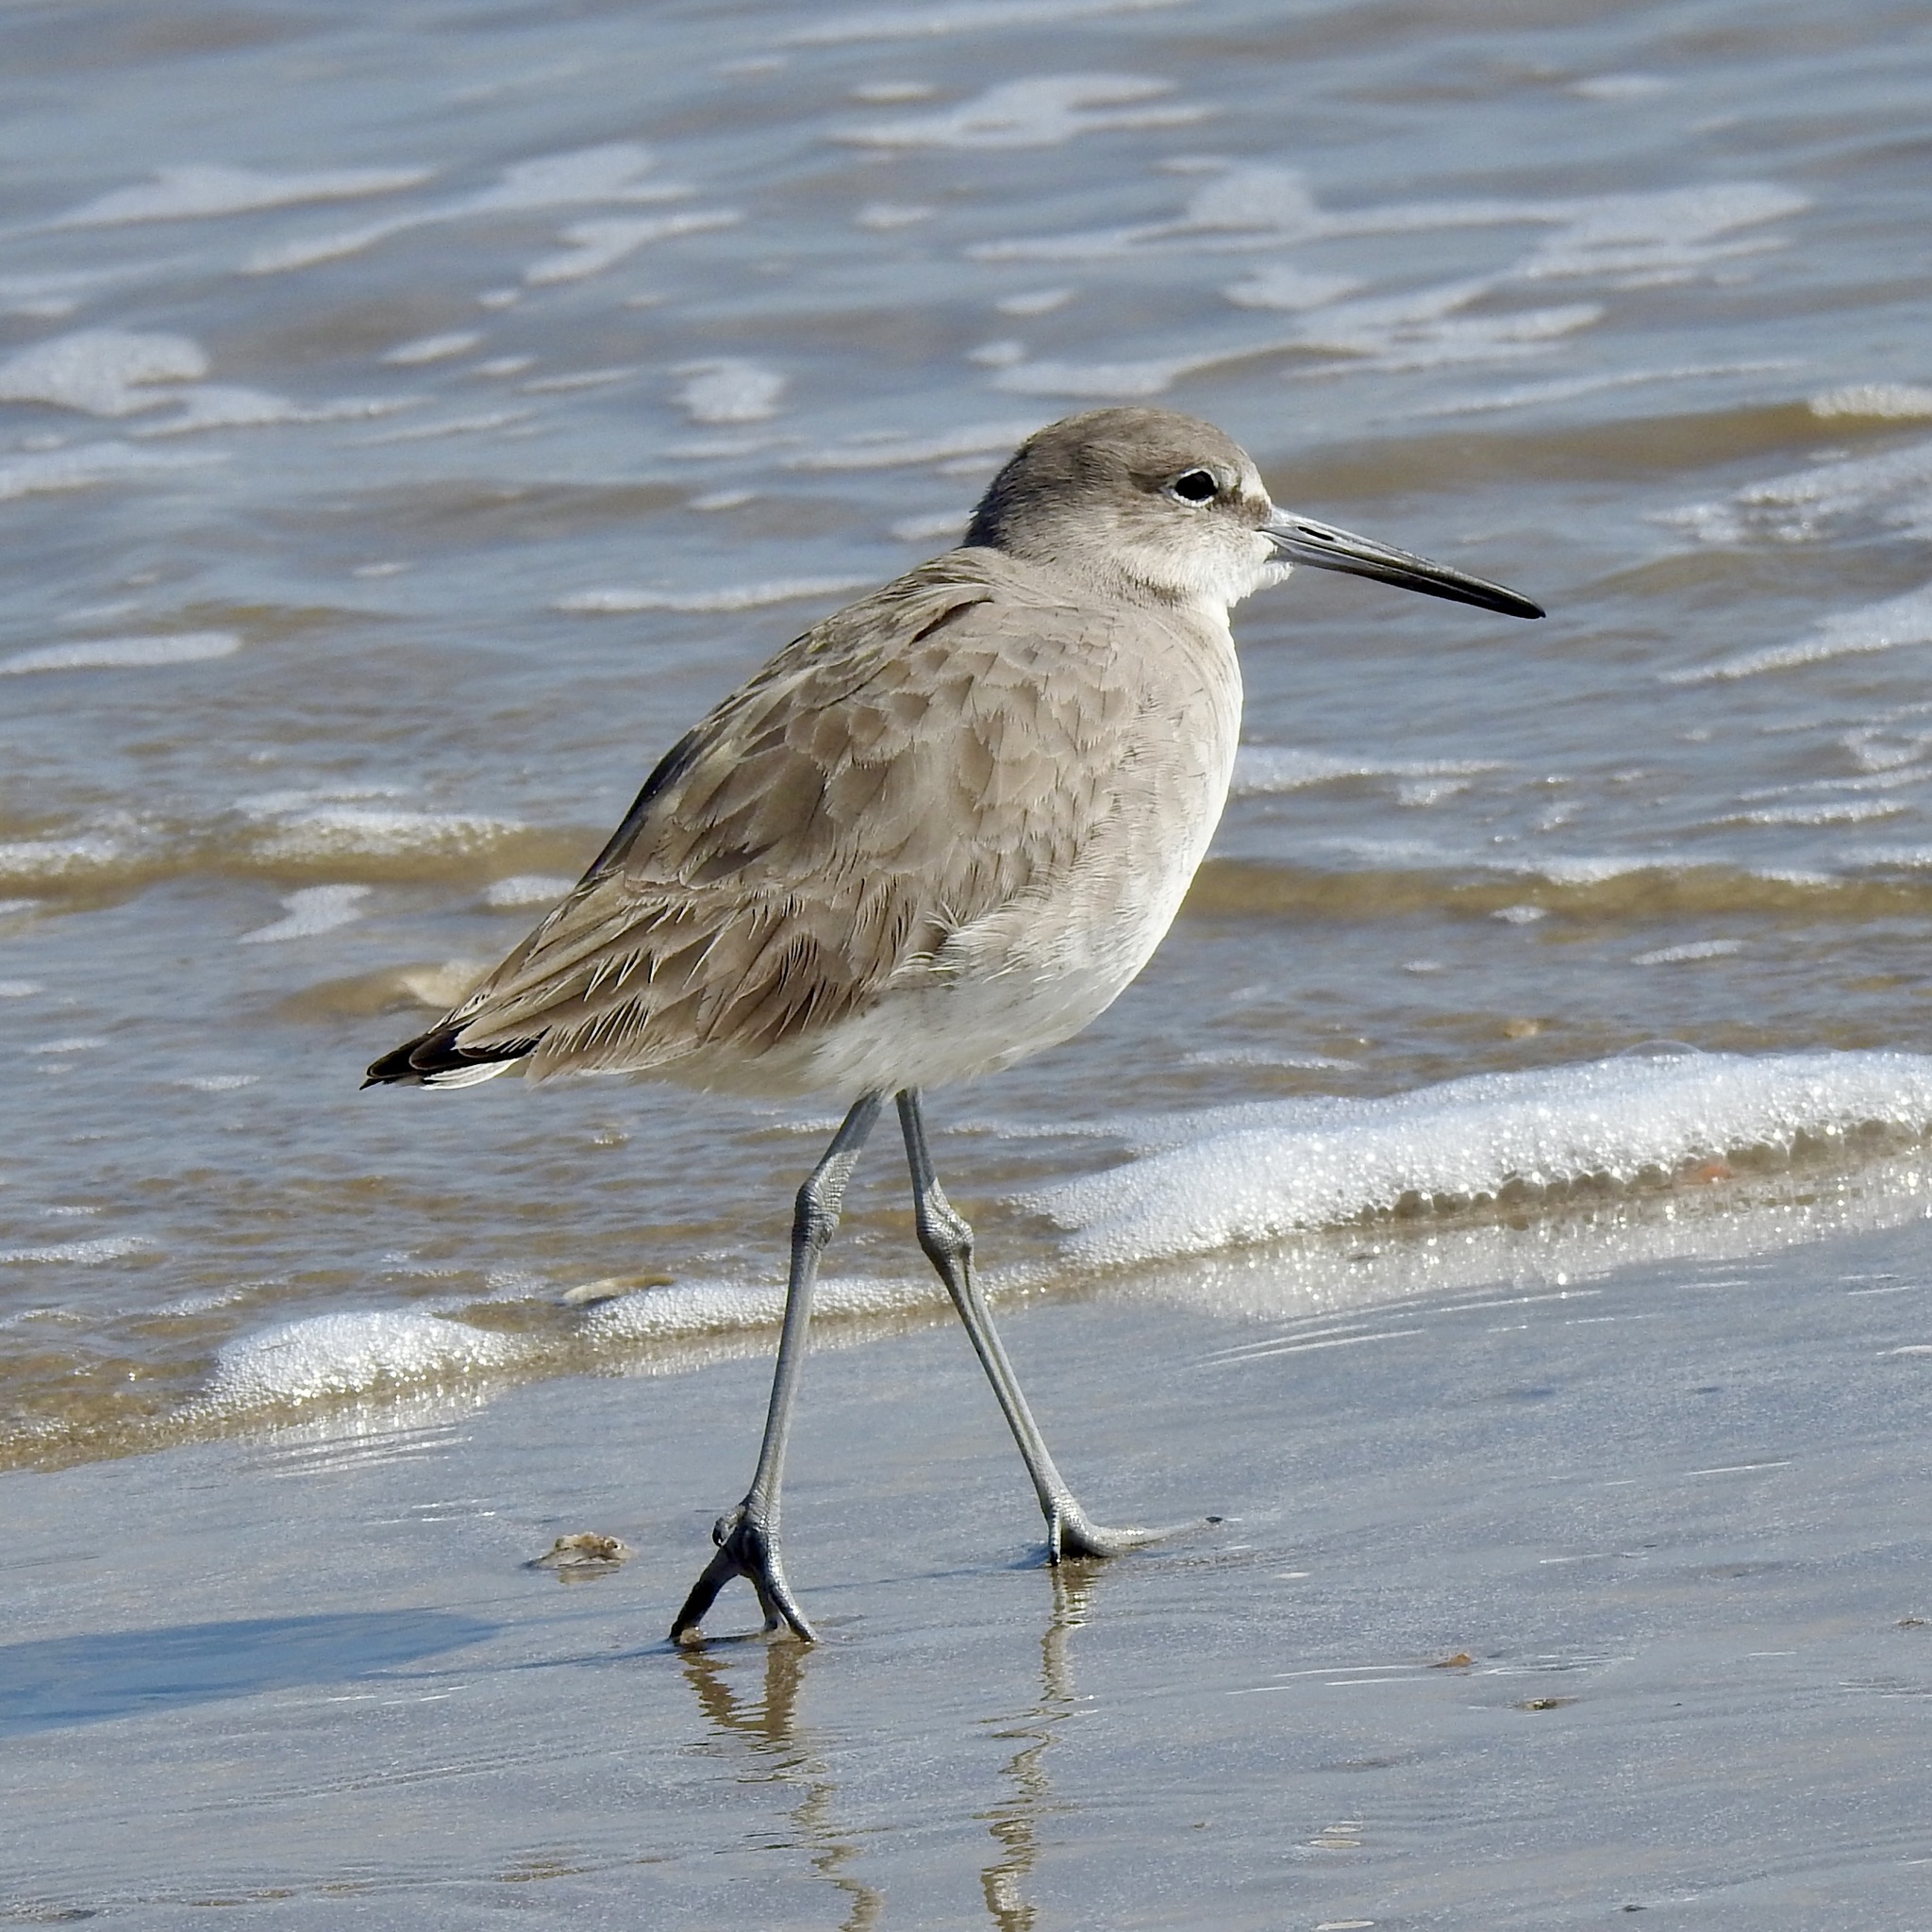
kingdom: Animalia
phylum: Chordata
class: Aves
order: Charadriiformes
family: Scolopacidae
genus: Tringa
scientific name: Tringa semipalmata
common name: Willet
